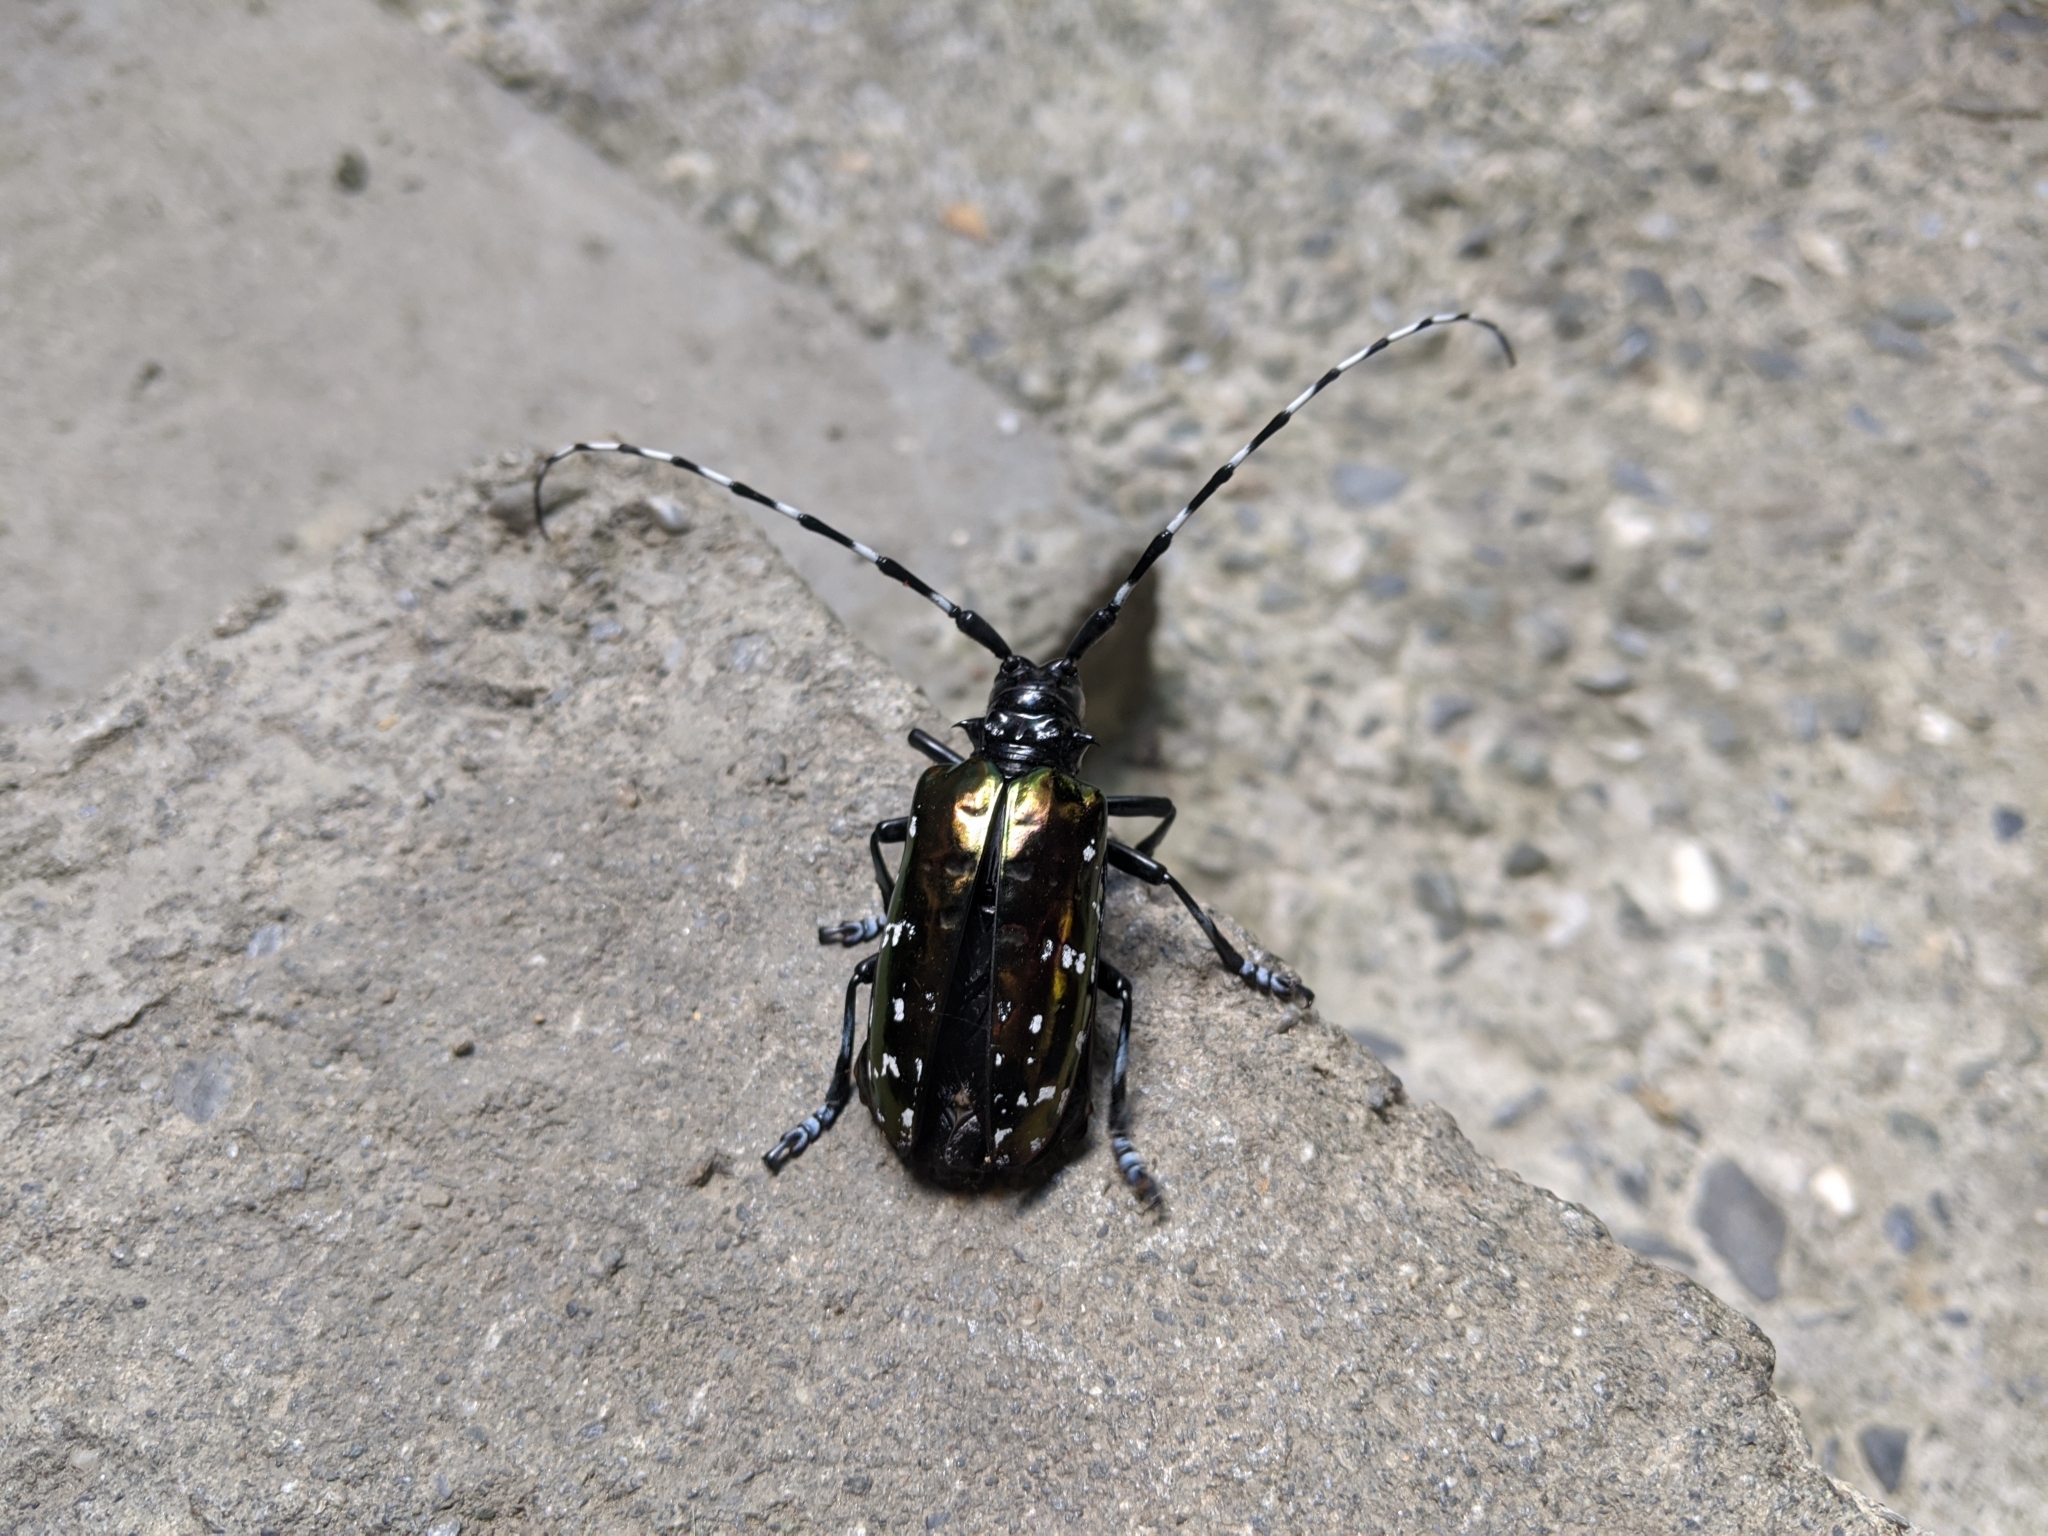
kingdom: Animalia
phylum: Arthropoda
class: Insecta
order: Coleoptera
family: Cerambycidae
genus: Anoplophora
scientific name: Anoplophora albopicta
